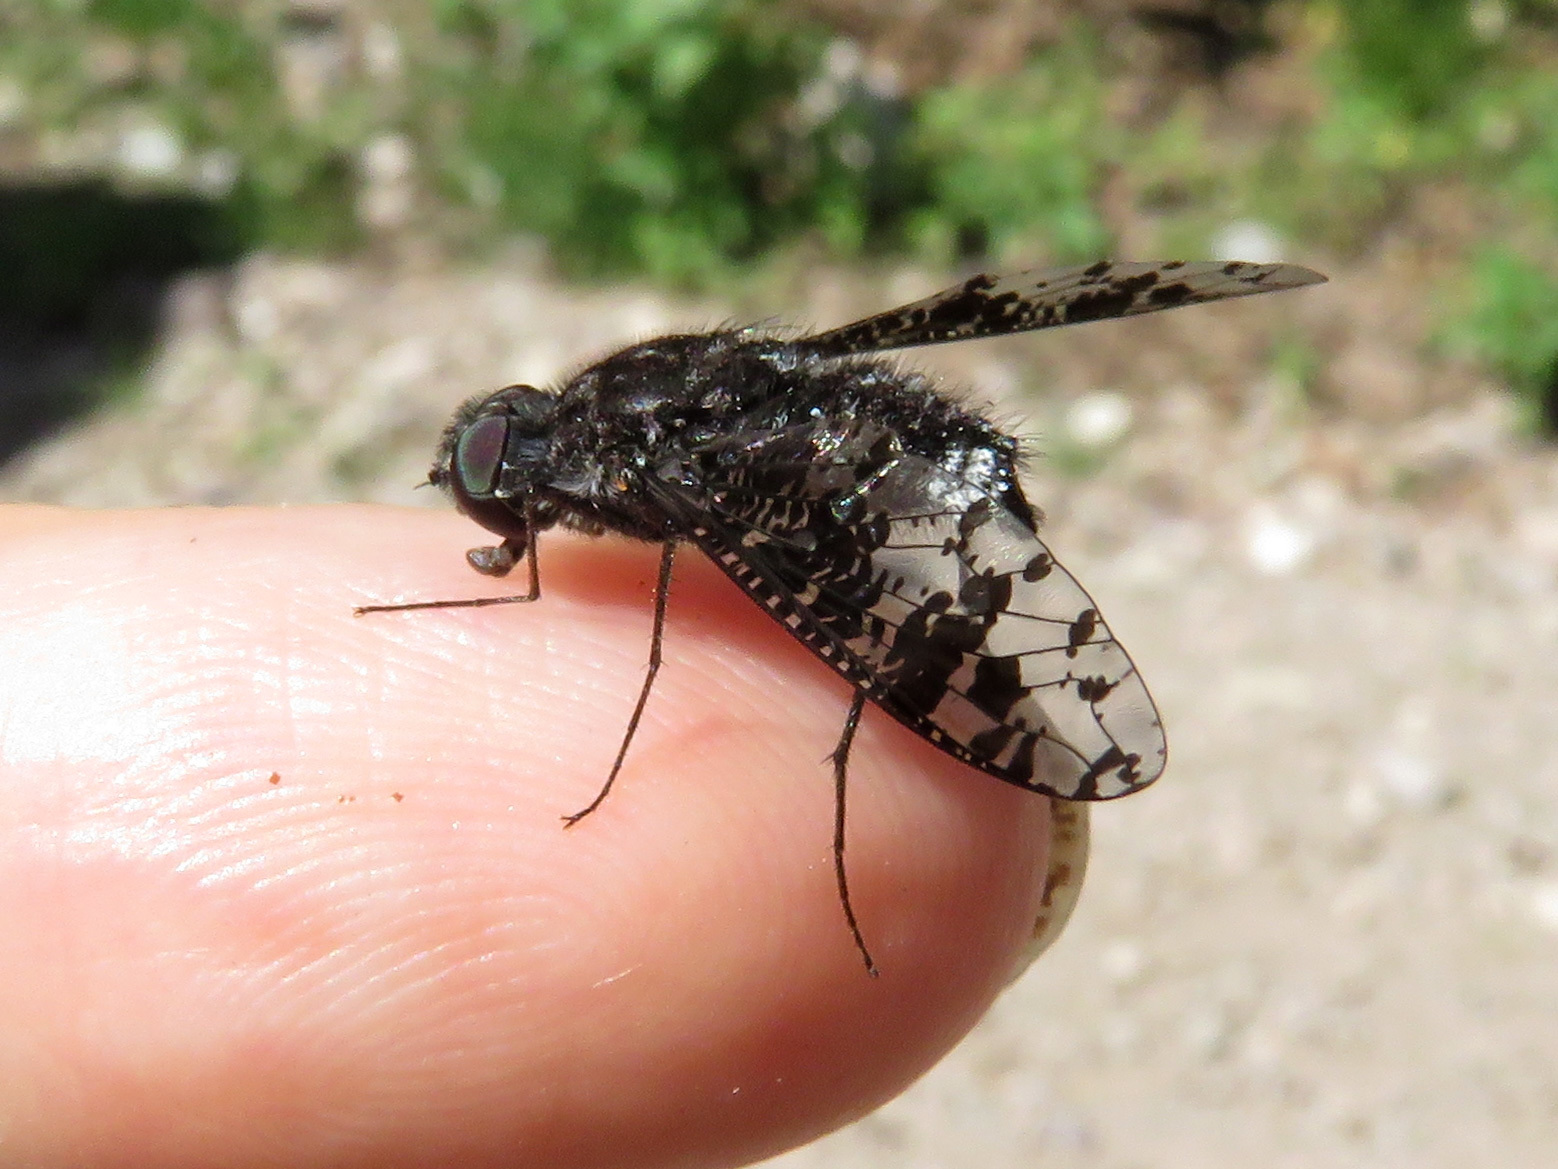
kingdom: Animalia
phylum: Arthropoda
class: Insecta
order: Diptera
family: Bombyliidae
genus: Anthrax
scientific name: Anthrax
